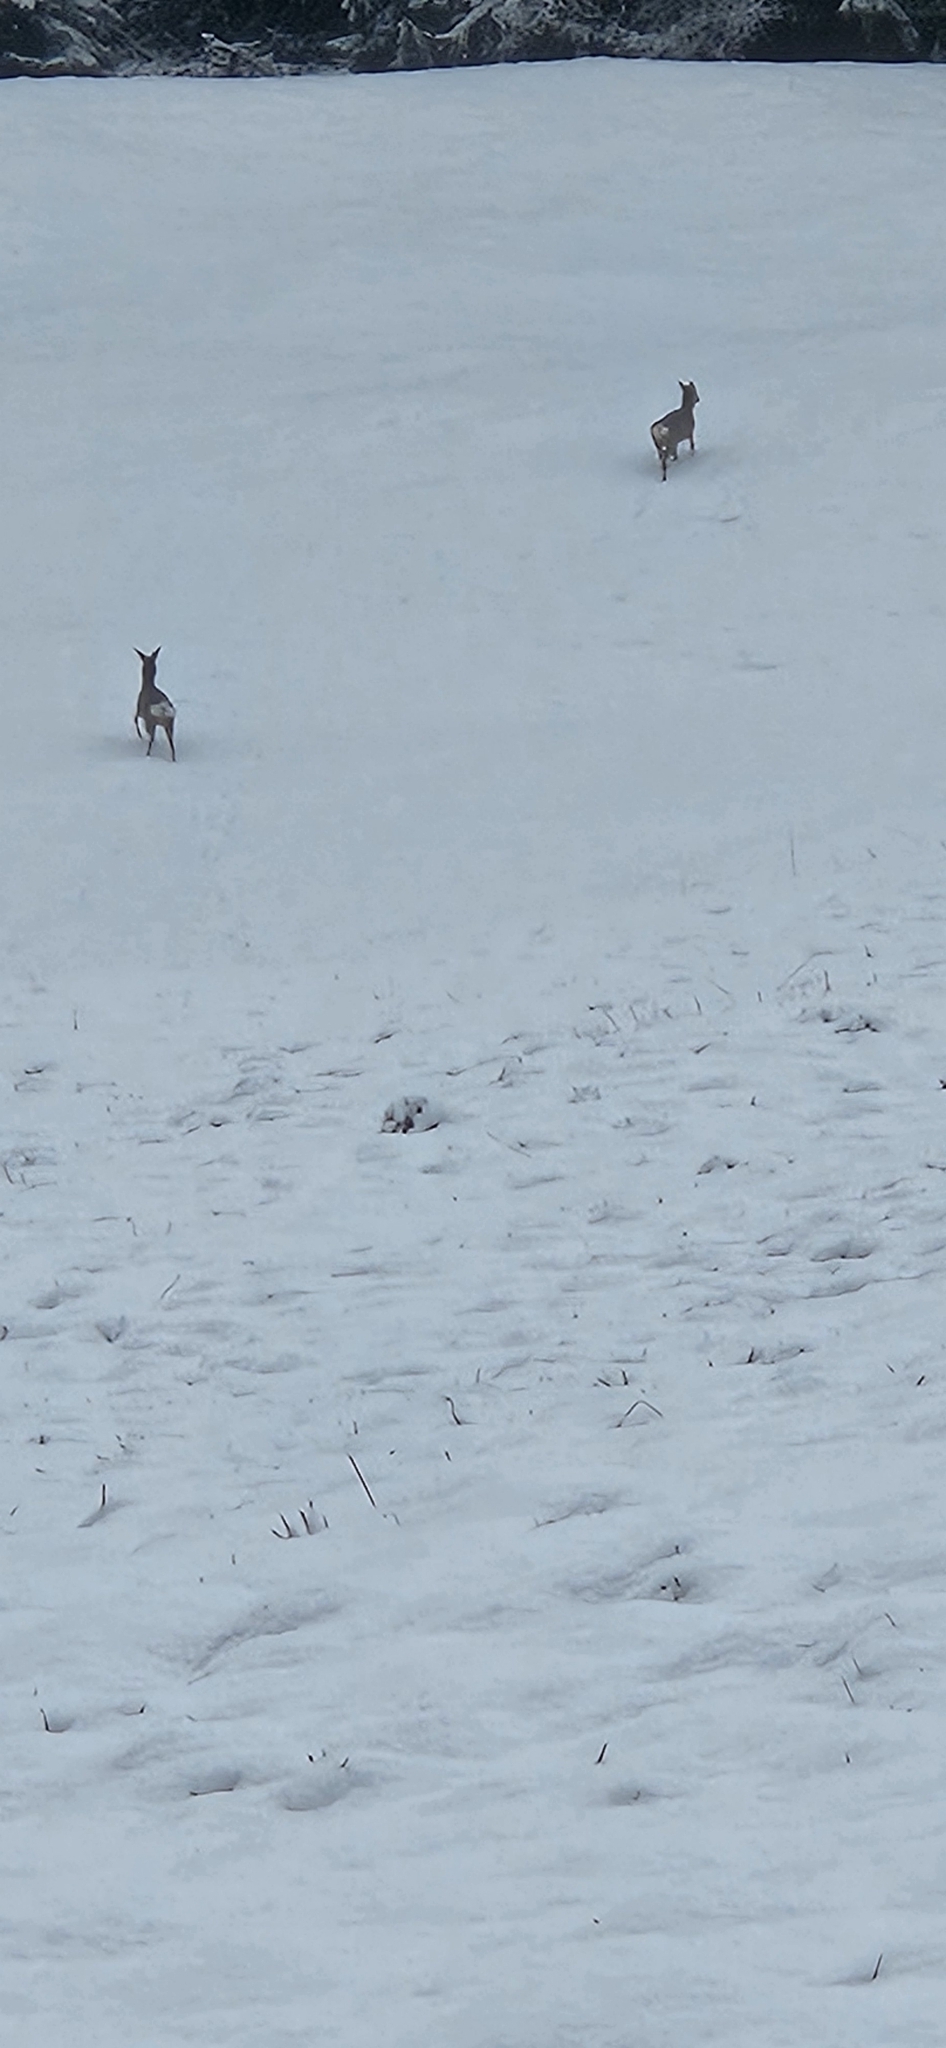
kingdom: Animalia
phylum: Chordata
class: Mammalia
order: Artiodactyla
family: Cervidae
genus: Capreolus
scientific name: Capreolus capreolus
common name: Western roe deer
